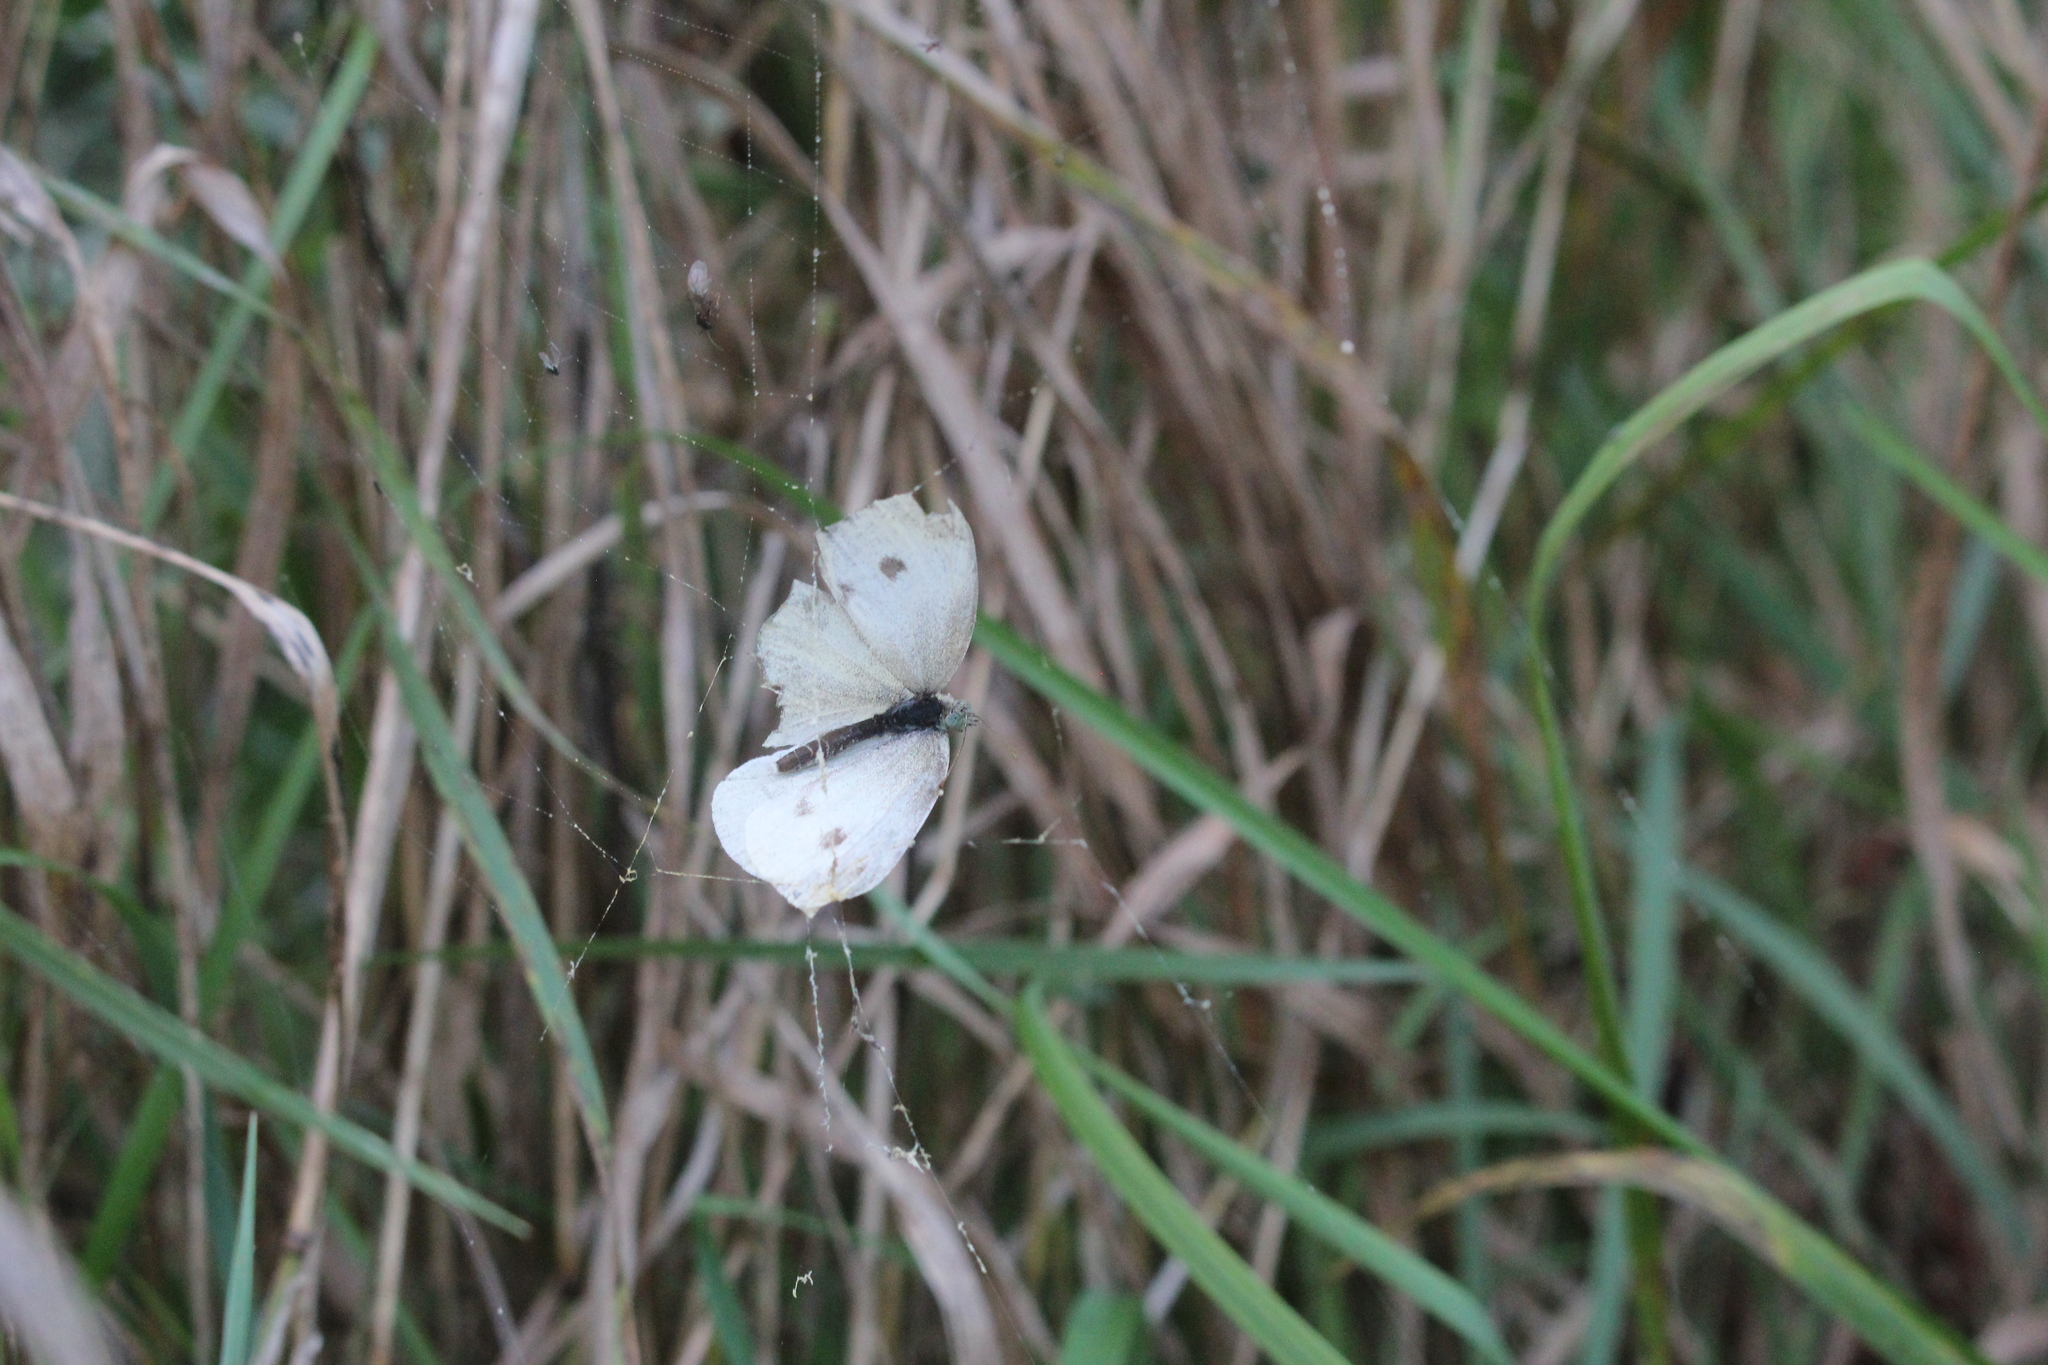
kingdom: Animalia
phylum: Arthropoda
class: Insecta
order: Lepidoptera
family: Pieridae
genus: Pieris
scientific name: Pieris rapae
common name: Small white
